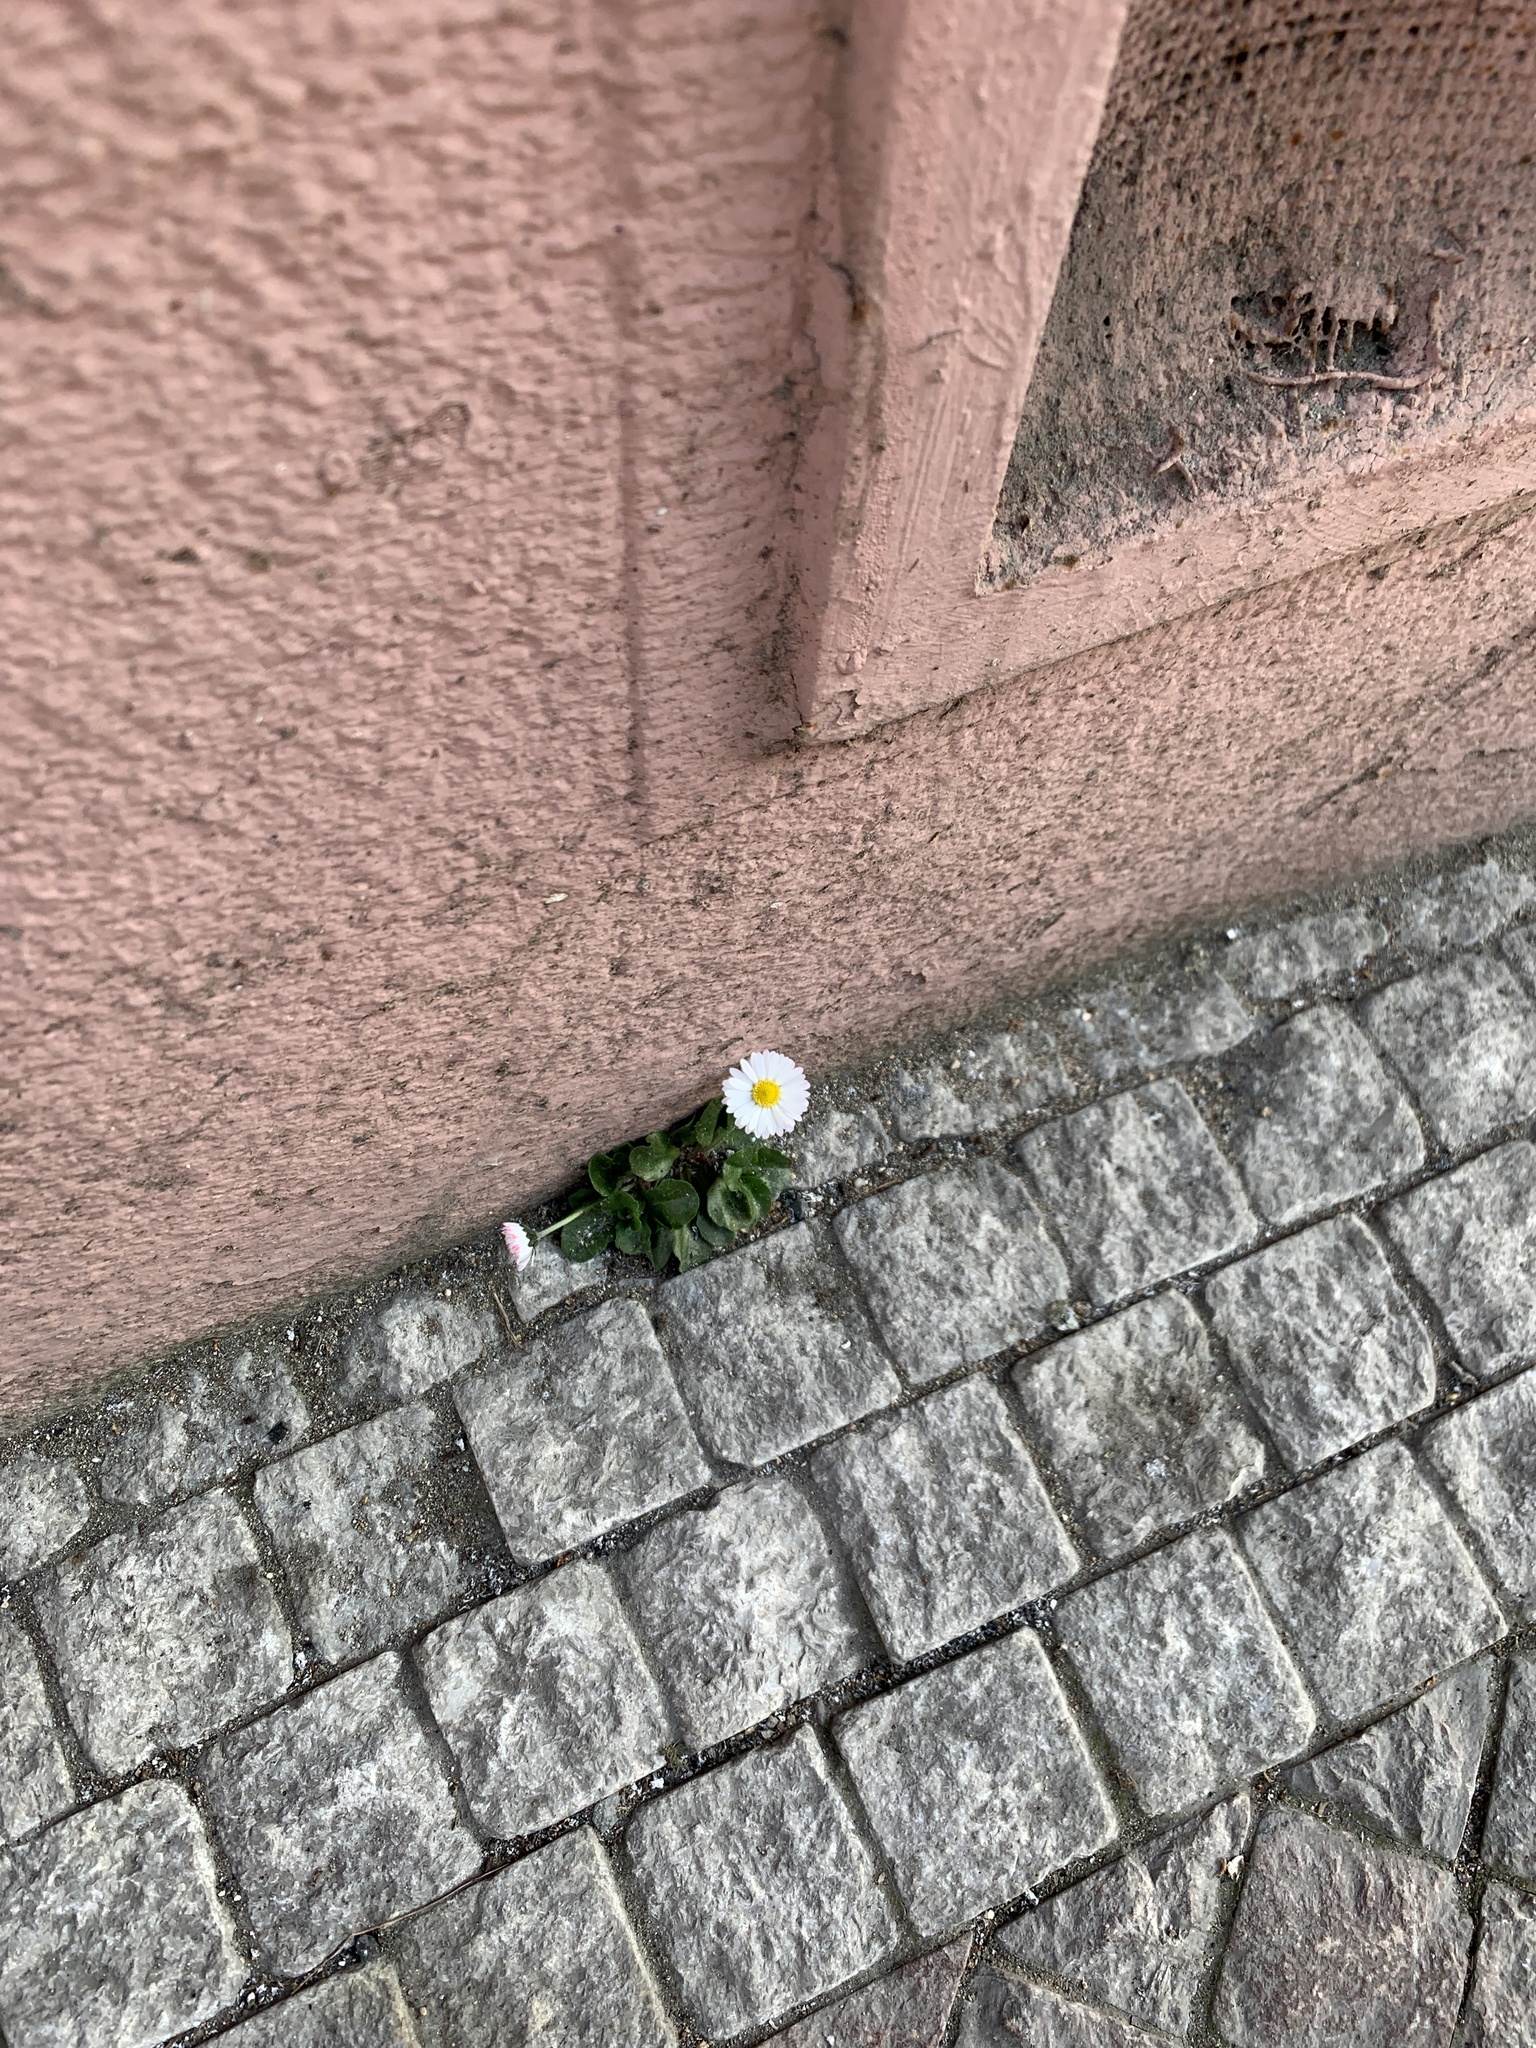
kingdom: Plantae
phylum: Tracheophyta
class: Magnoliopsida
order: Asterales
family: Asteraceae
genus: Bellis
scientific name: Bellis perennis
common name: Lawndaisy
